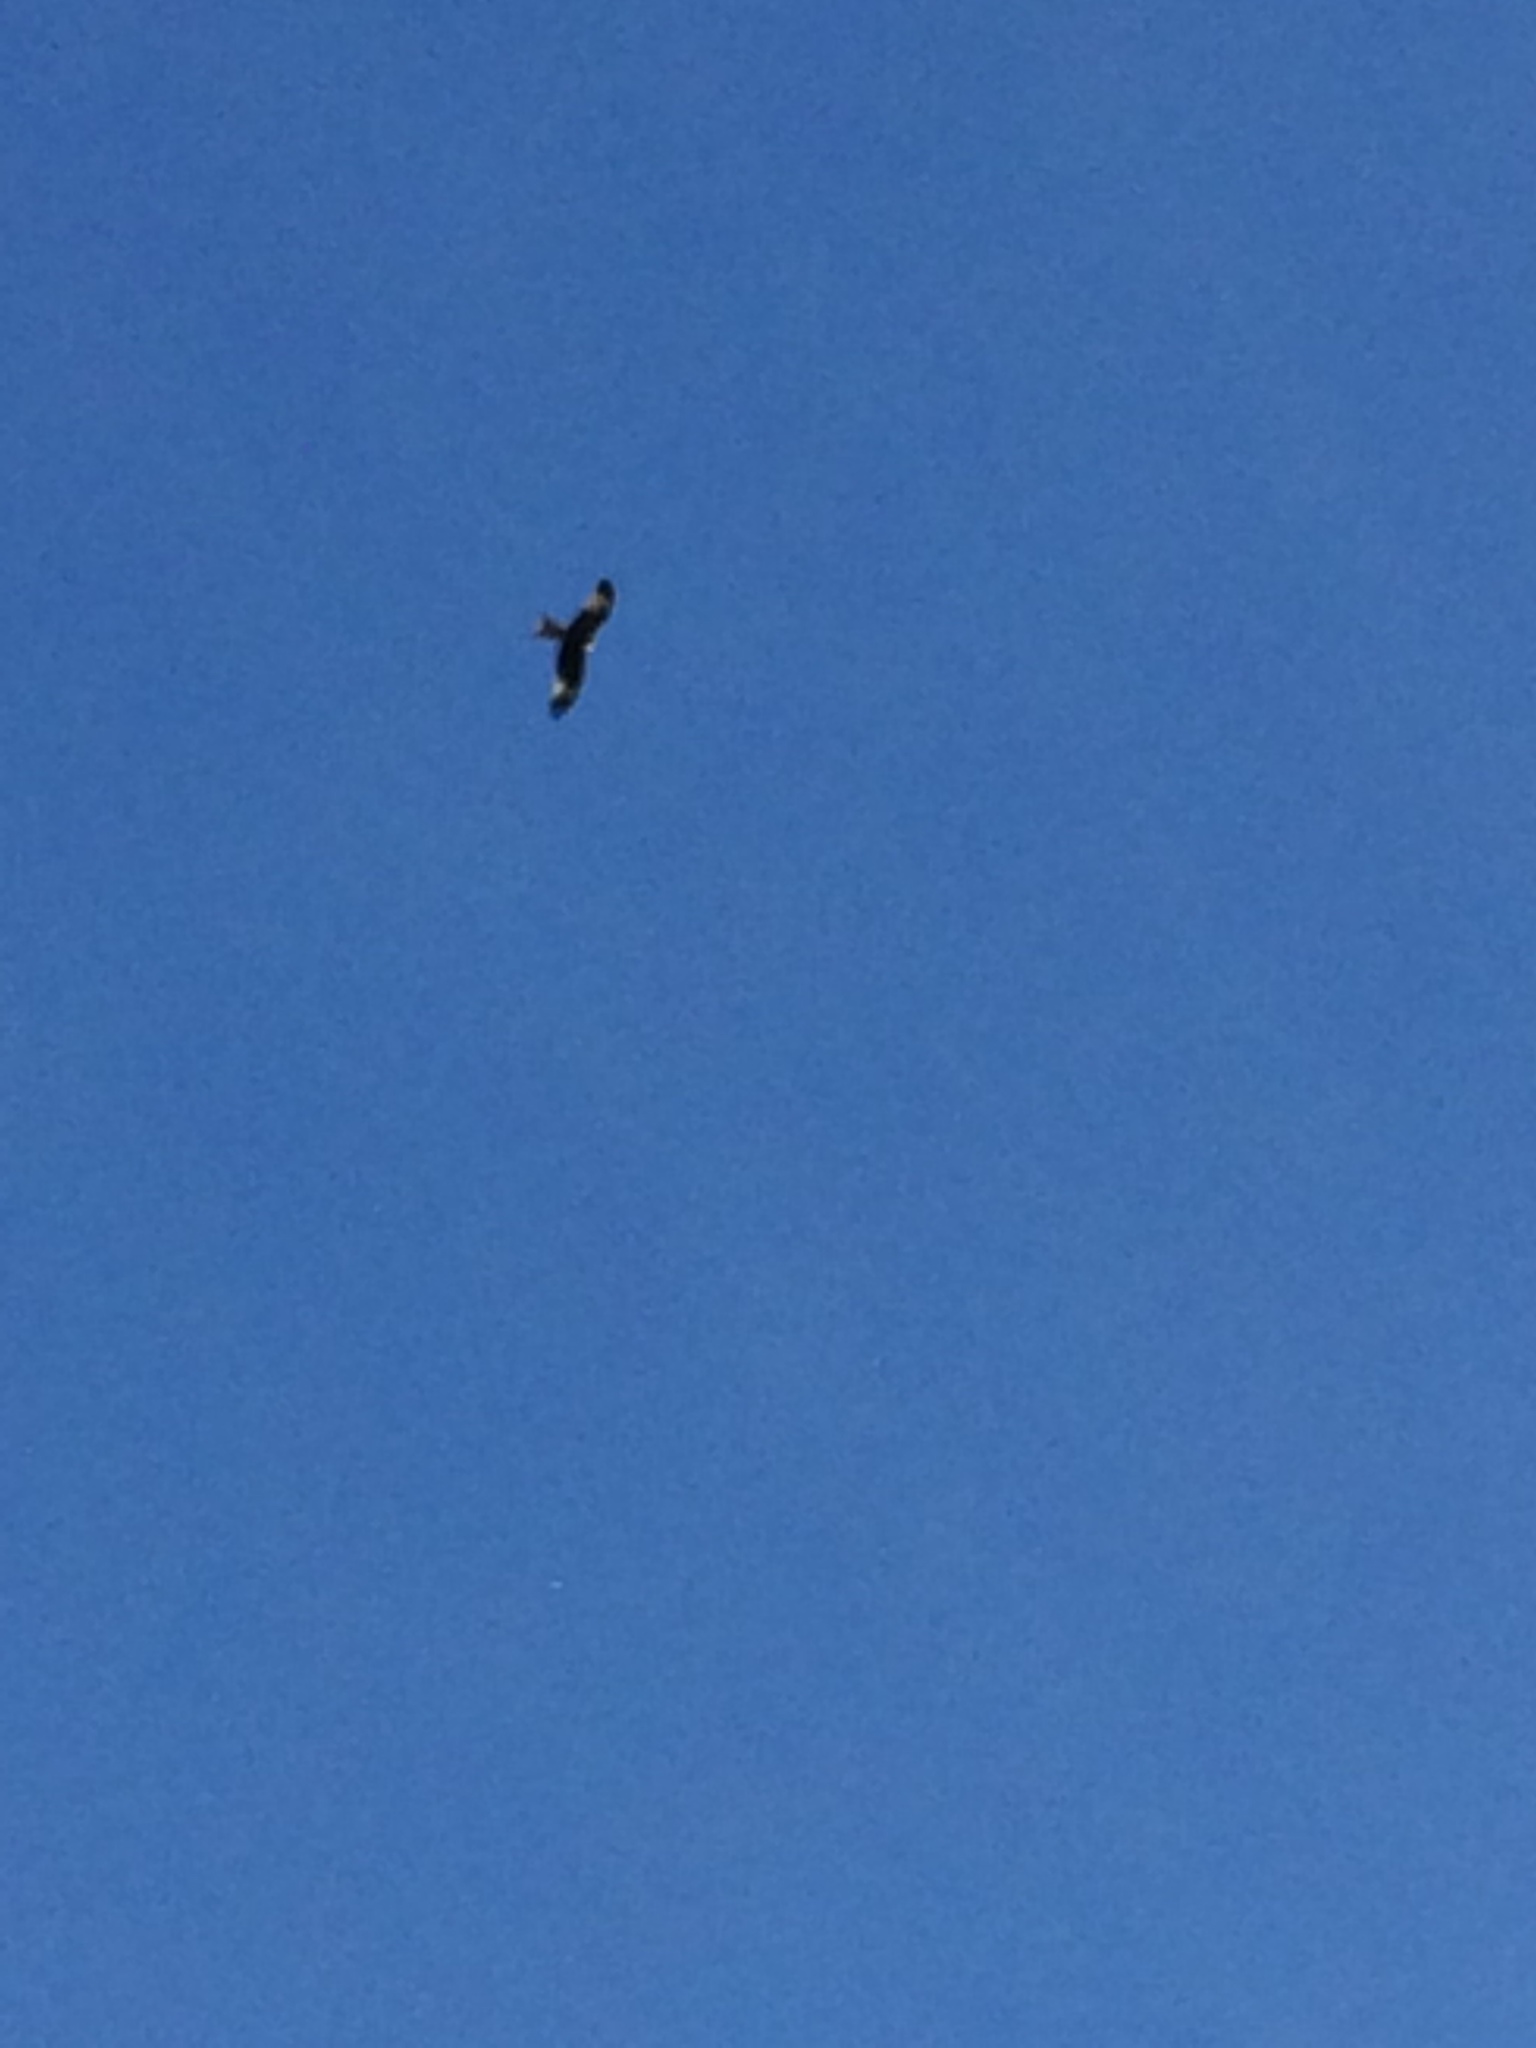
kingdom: Animalia
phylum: Chordata
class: Aves
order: Accipitriformes
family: Accipitridae
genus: Milvus
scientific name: Milvus milvus
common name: Red kite
